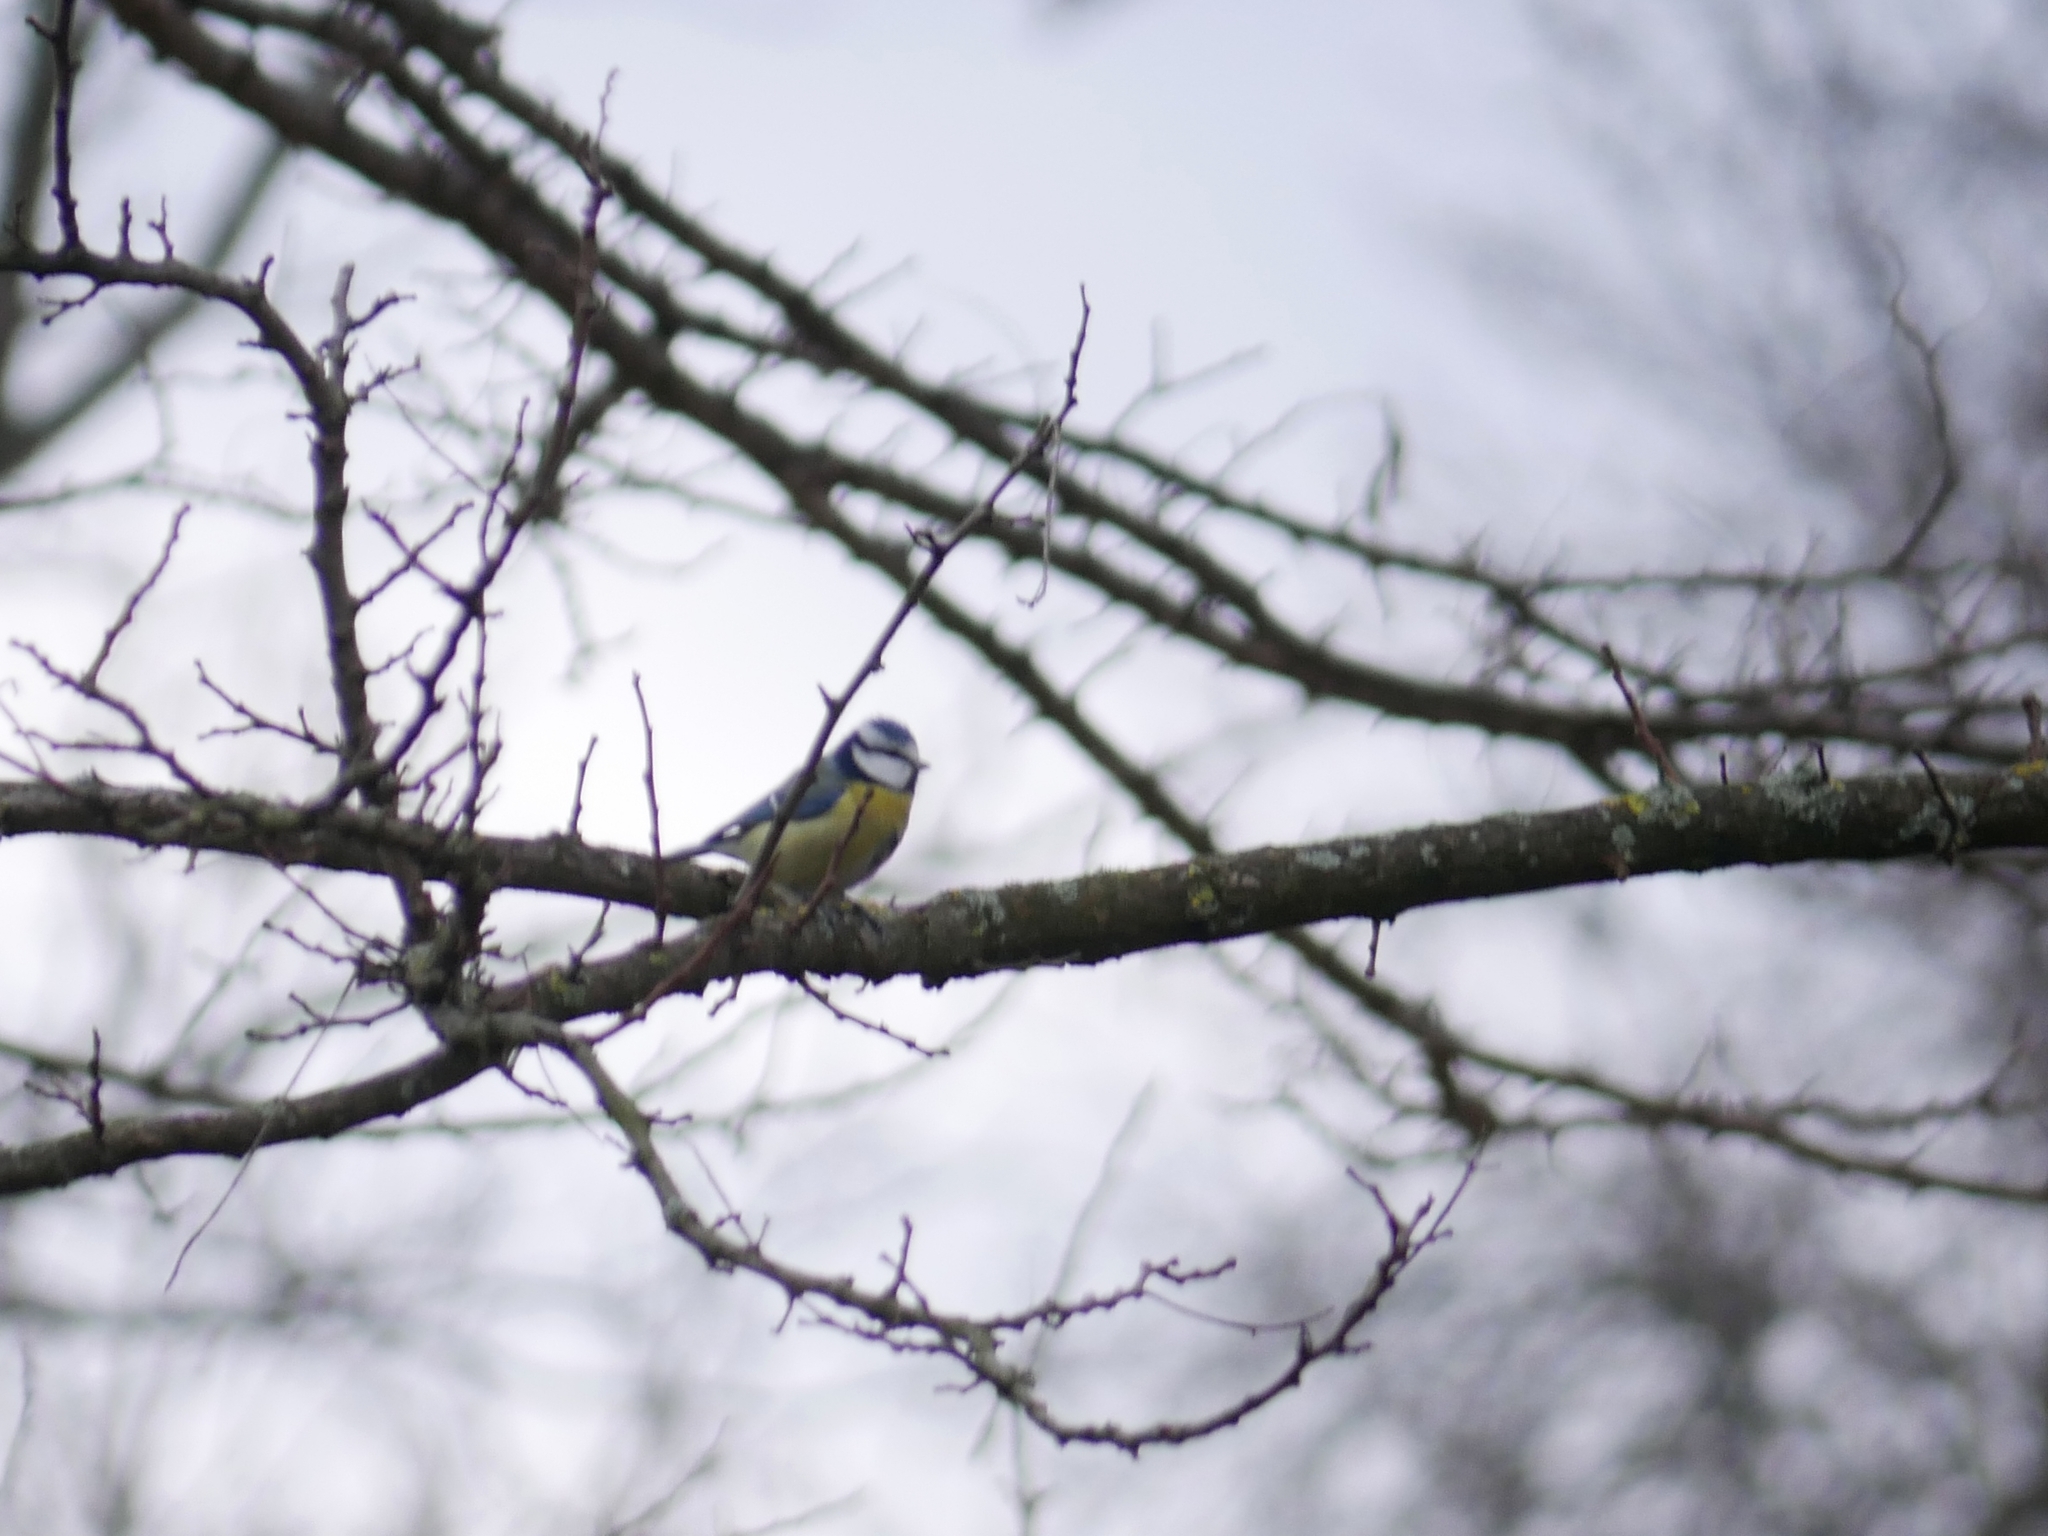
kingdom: Animalia
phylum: Chordata
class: Aves
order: Passeriformes
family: Paridae
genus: Cyanistes
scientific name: Cyanistes caeruleus
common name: Eurasian blue tit
